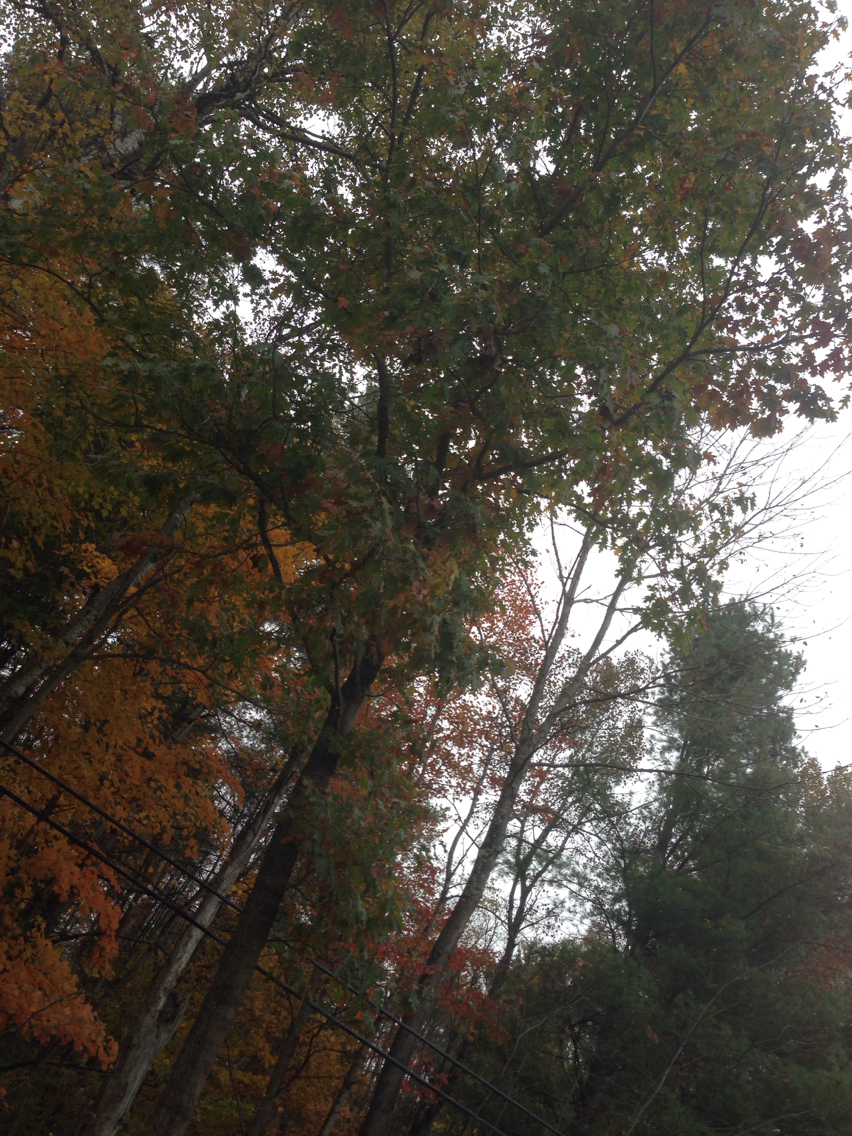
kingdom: Plantae
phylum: Tracheophyta
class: Magnoliopsida
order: Fagales
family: Fagaceae
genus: Quercus
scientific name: Quercus rubra
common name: Red oak
